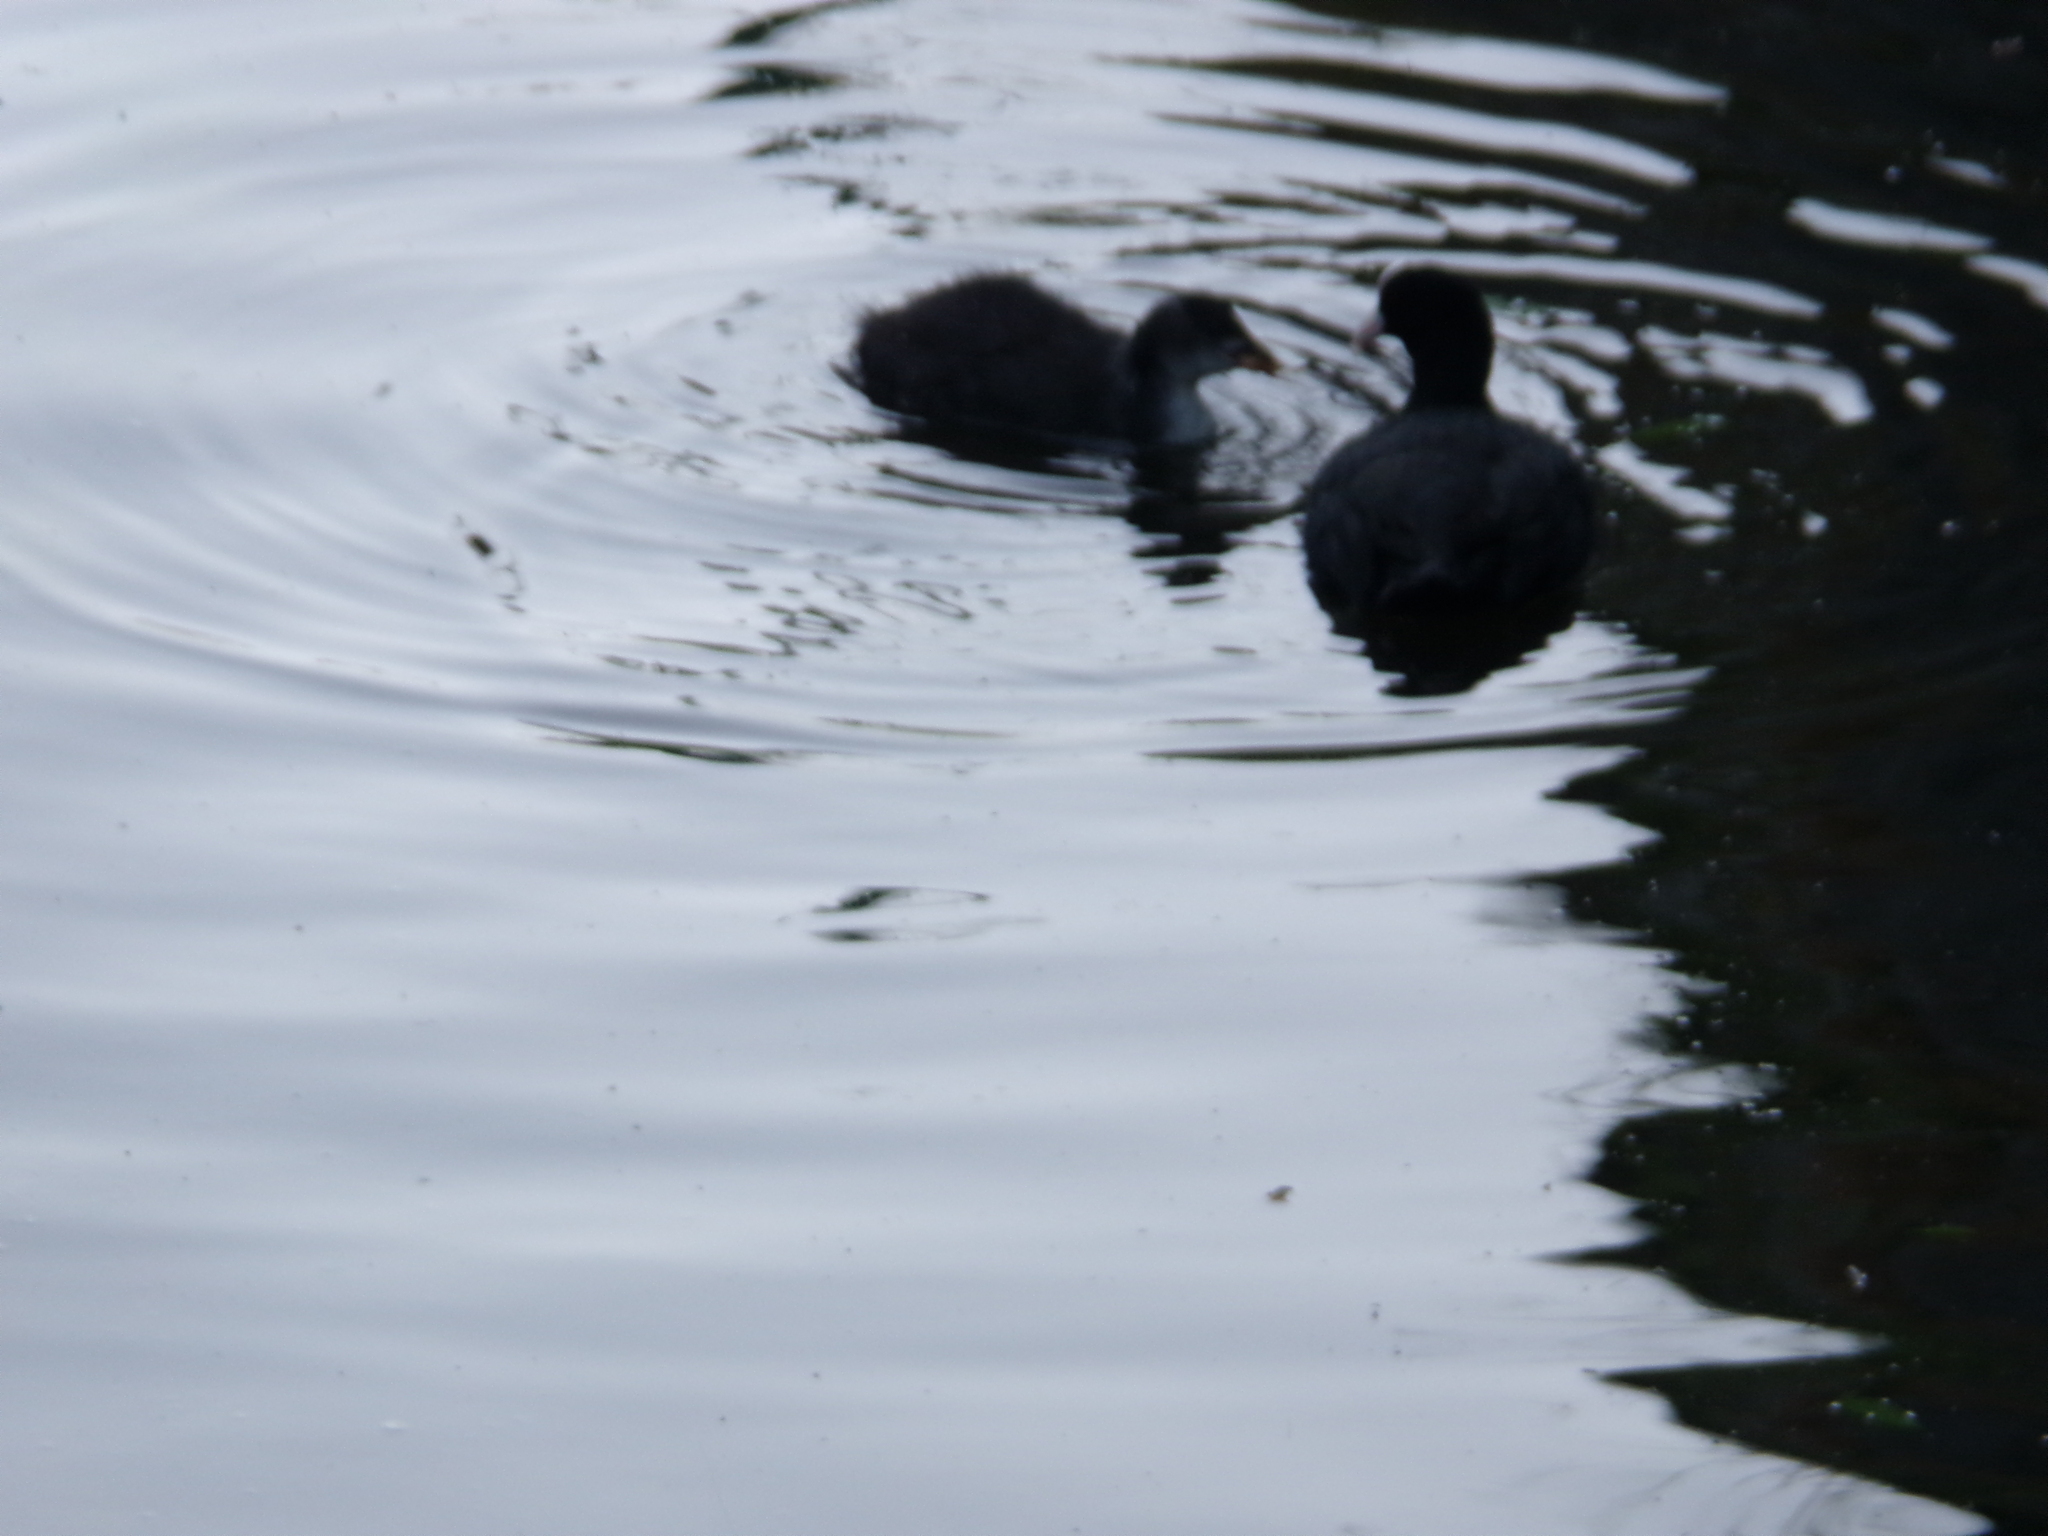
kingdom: Animalia
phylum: Chordata
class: Aves
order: Gruiformes
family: Rallidae
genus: Fulica
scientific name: Fulica atra
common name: Eurasian coot
